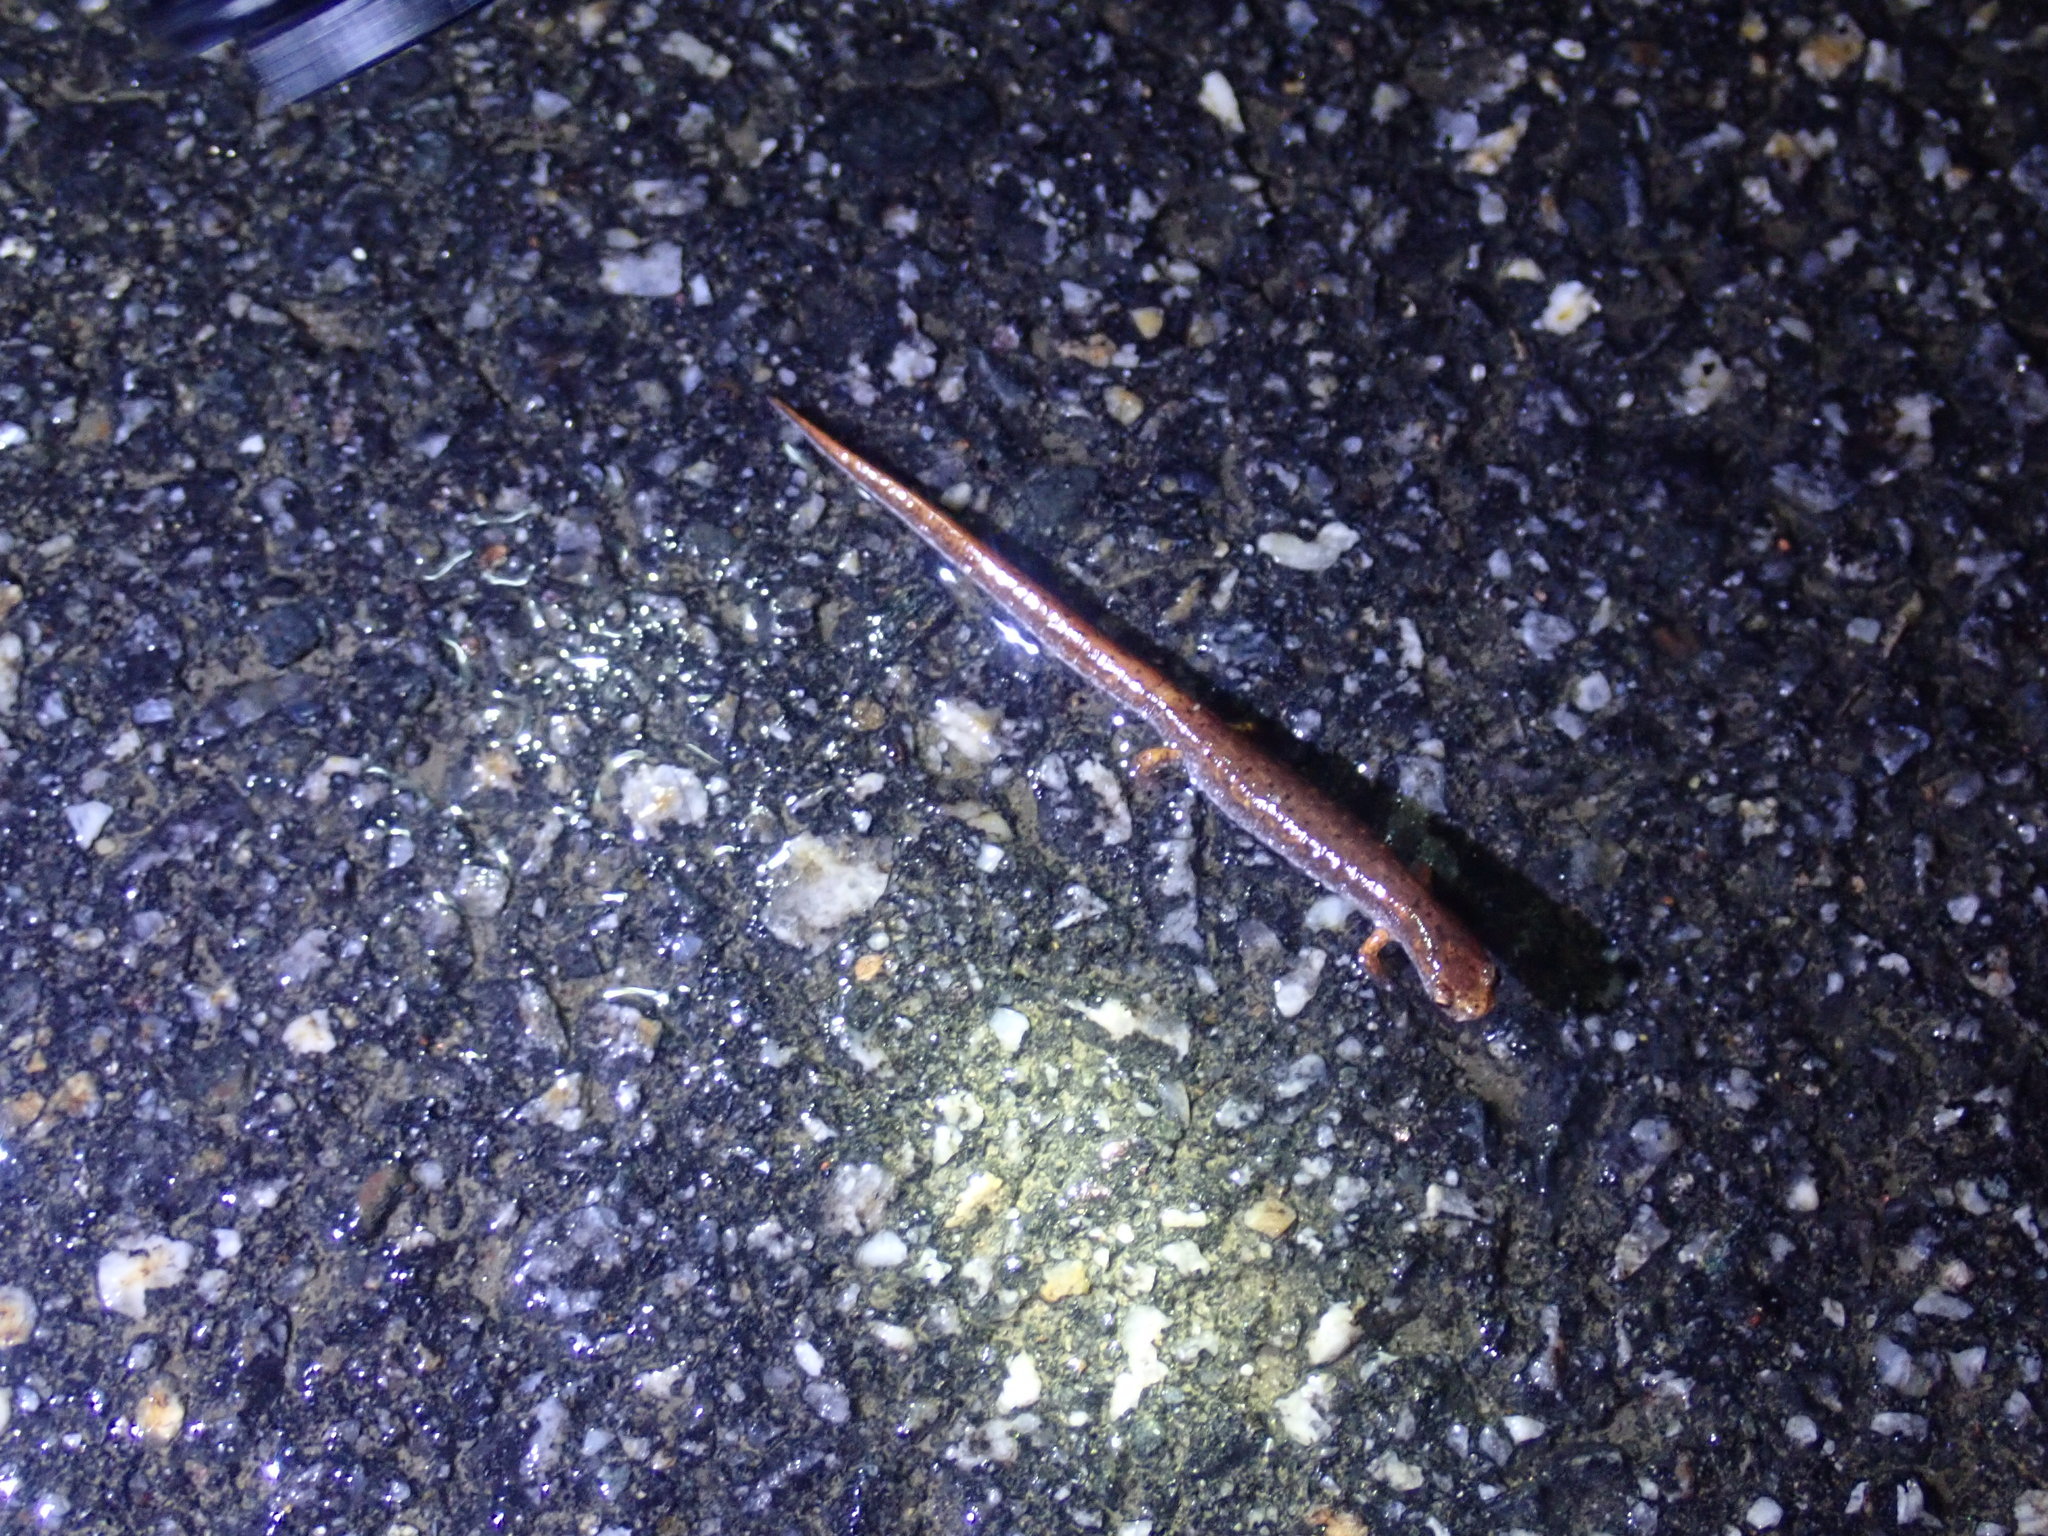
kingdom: Animalia
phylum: Chordata
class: Amphibia
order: Caudata
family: Plethodontidae
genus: Hemidactylium
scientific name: Hemidactylium scutatum
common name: Four-toed salamander
